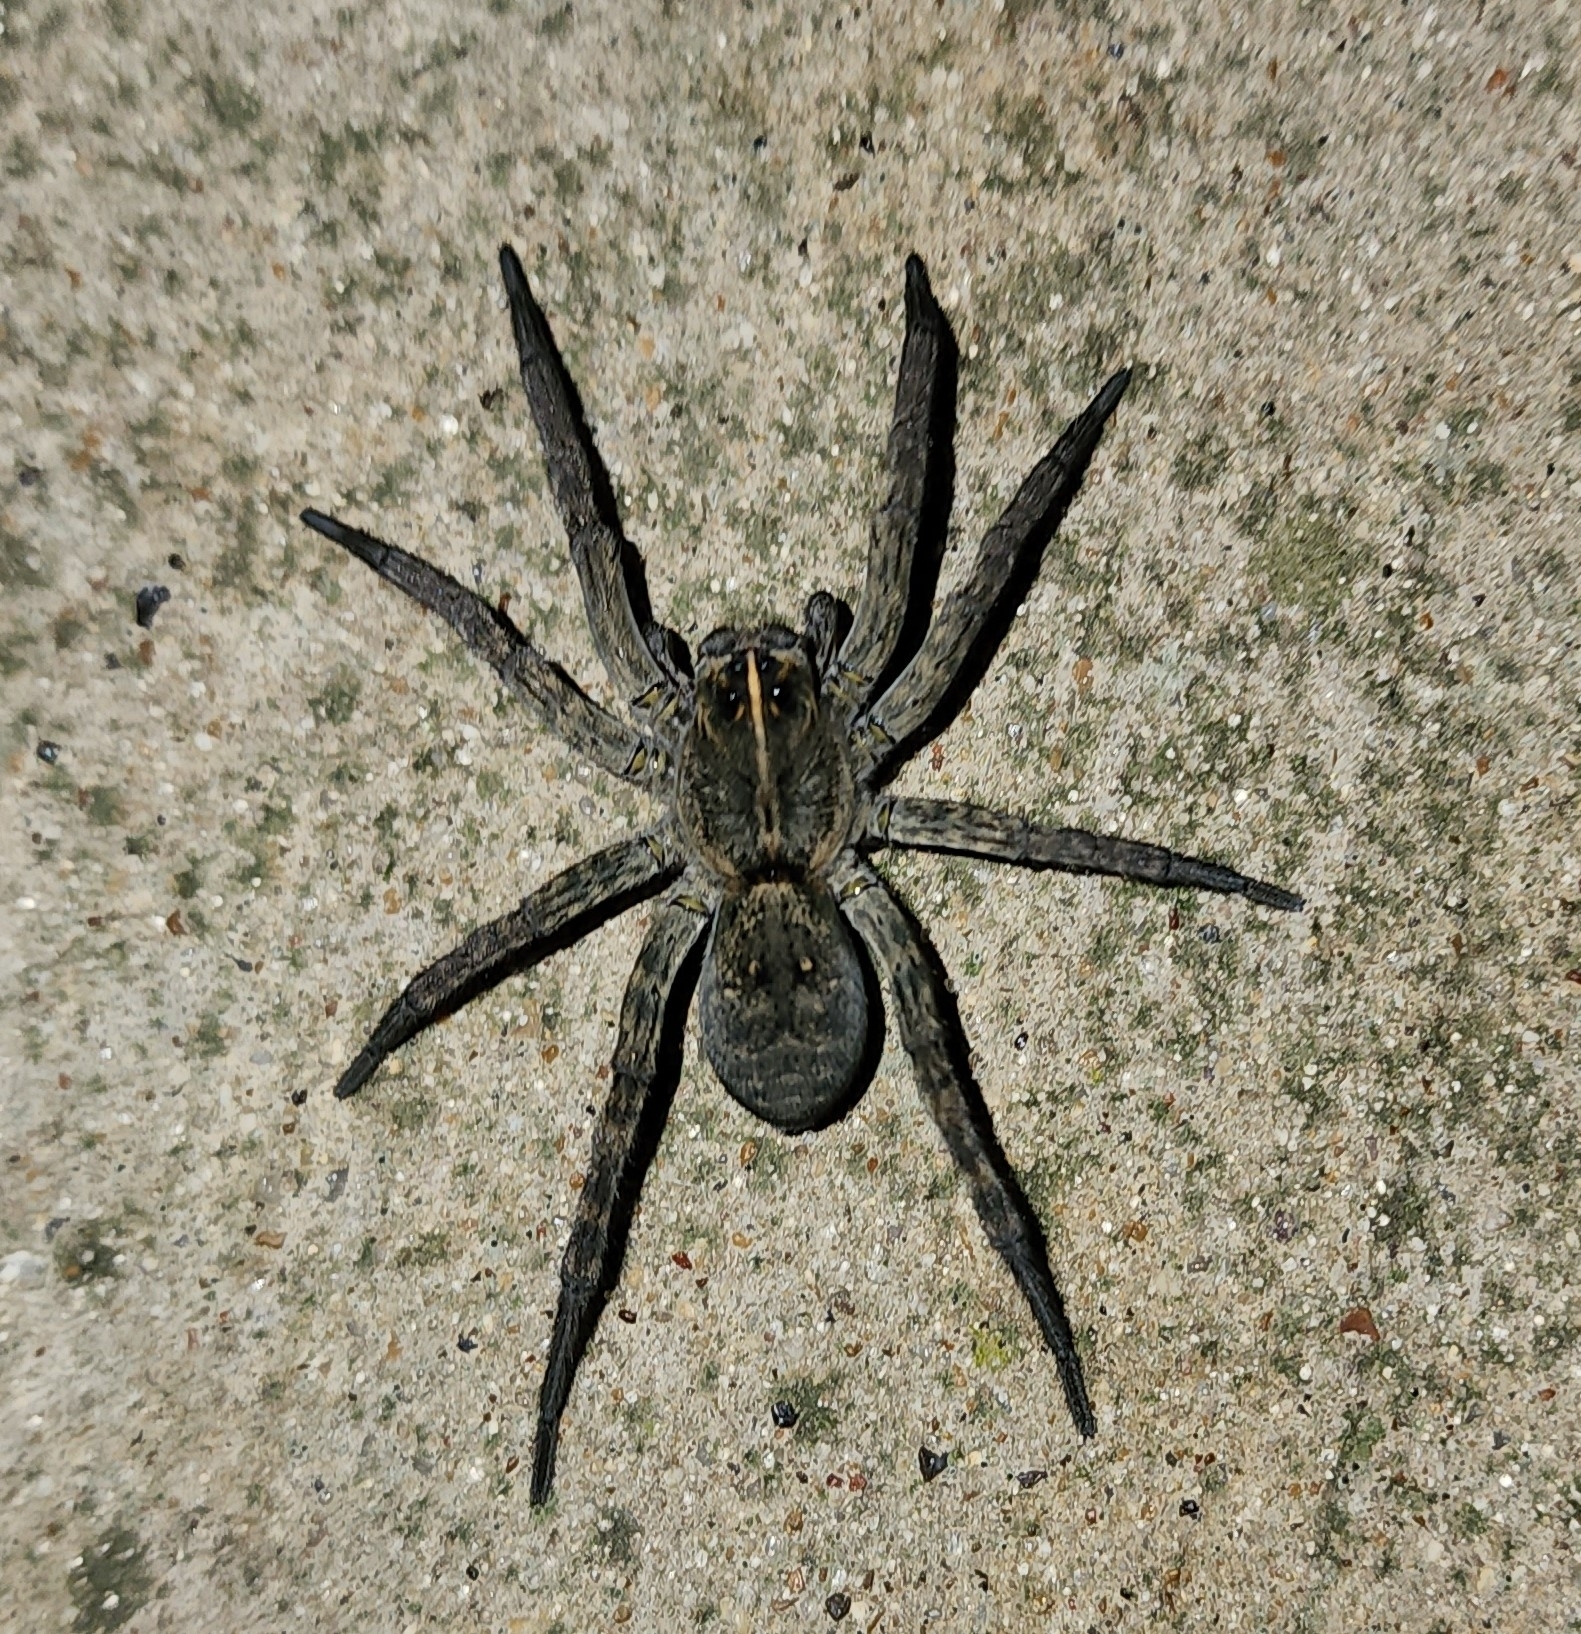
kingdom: Animalia
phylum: Arthropoda
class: Arachnida
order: Araneae
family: Lycosidae
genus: Tigrosa
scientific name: Tigrosa grandis
